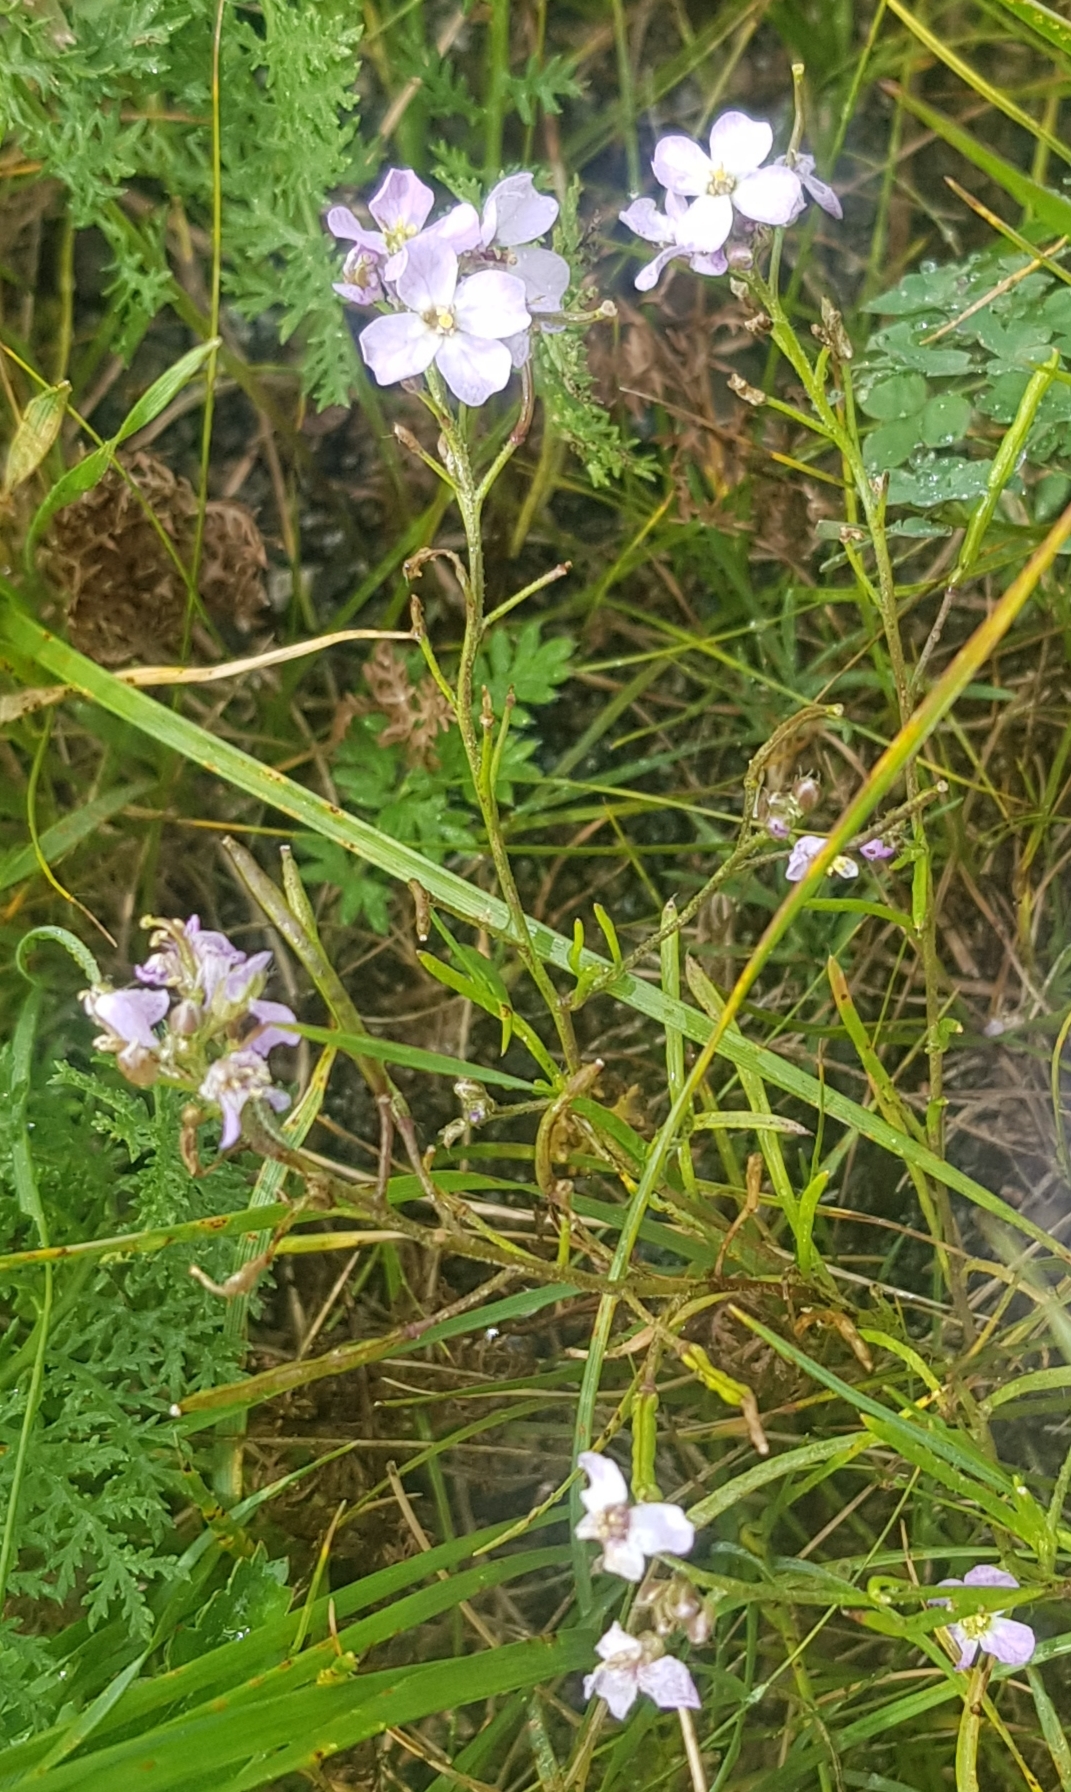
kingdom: Plantae
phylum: Tracheophyta
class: Magnoliopsida
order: Brassicales
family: Brassicaceae
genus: Dontostemon
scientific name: Dontostemon integrifolius
